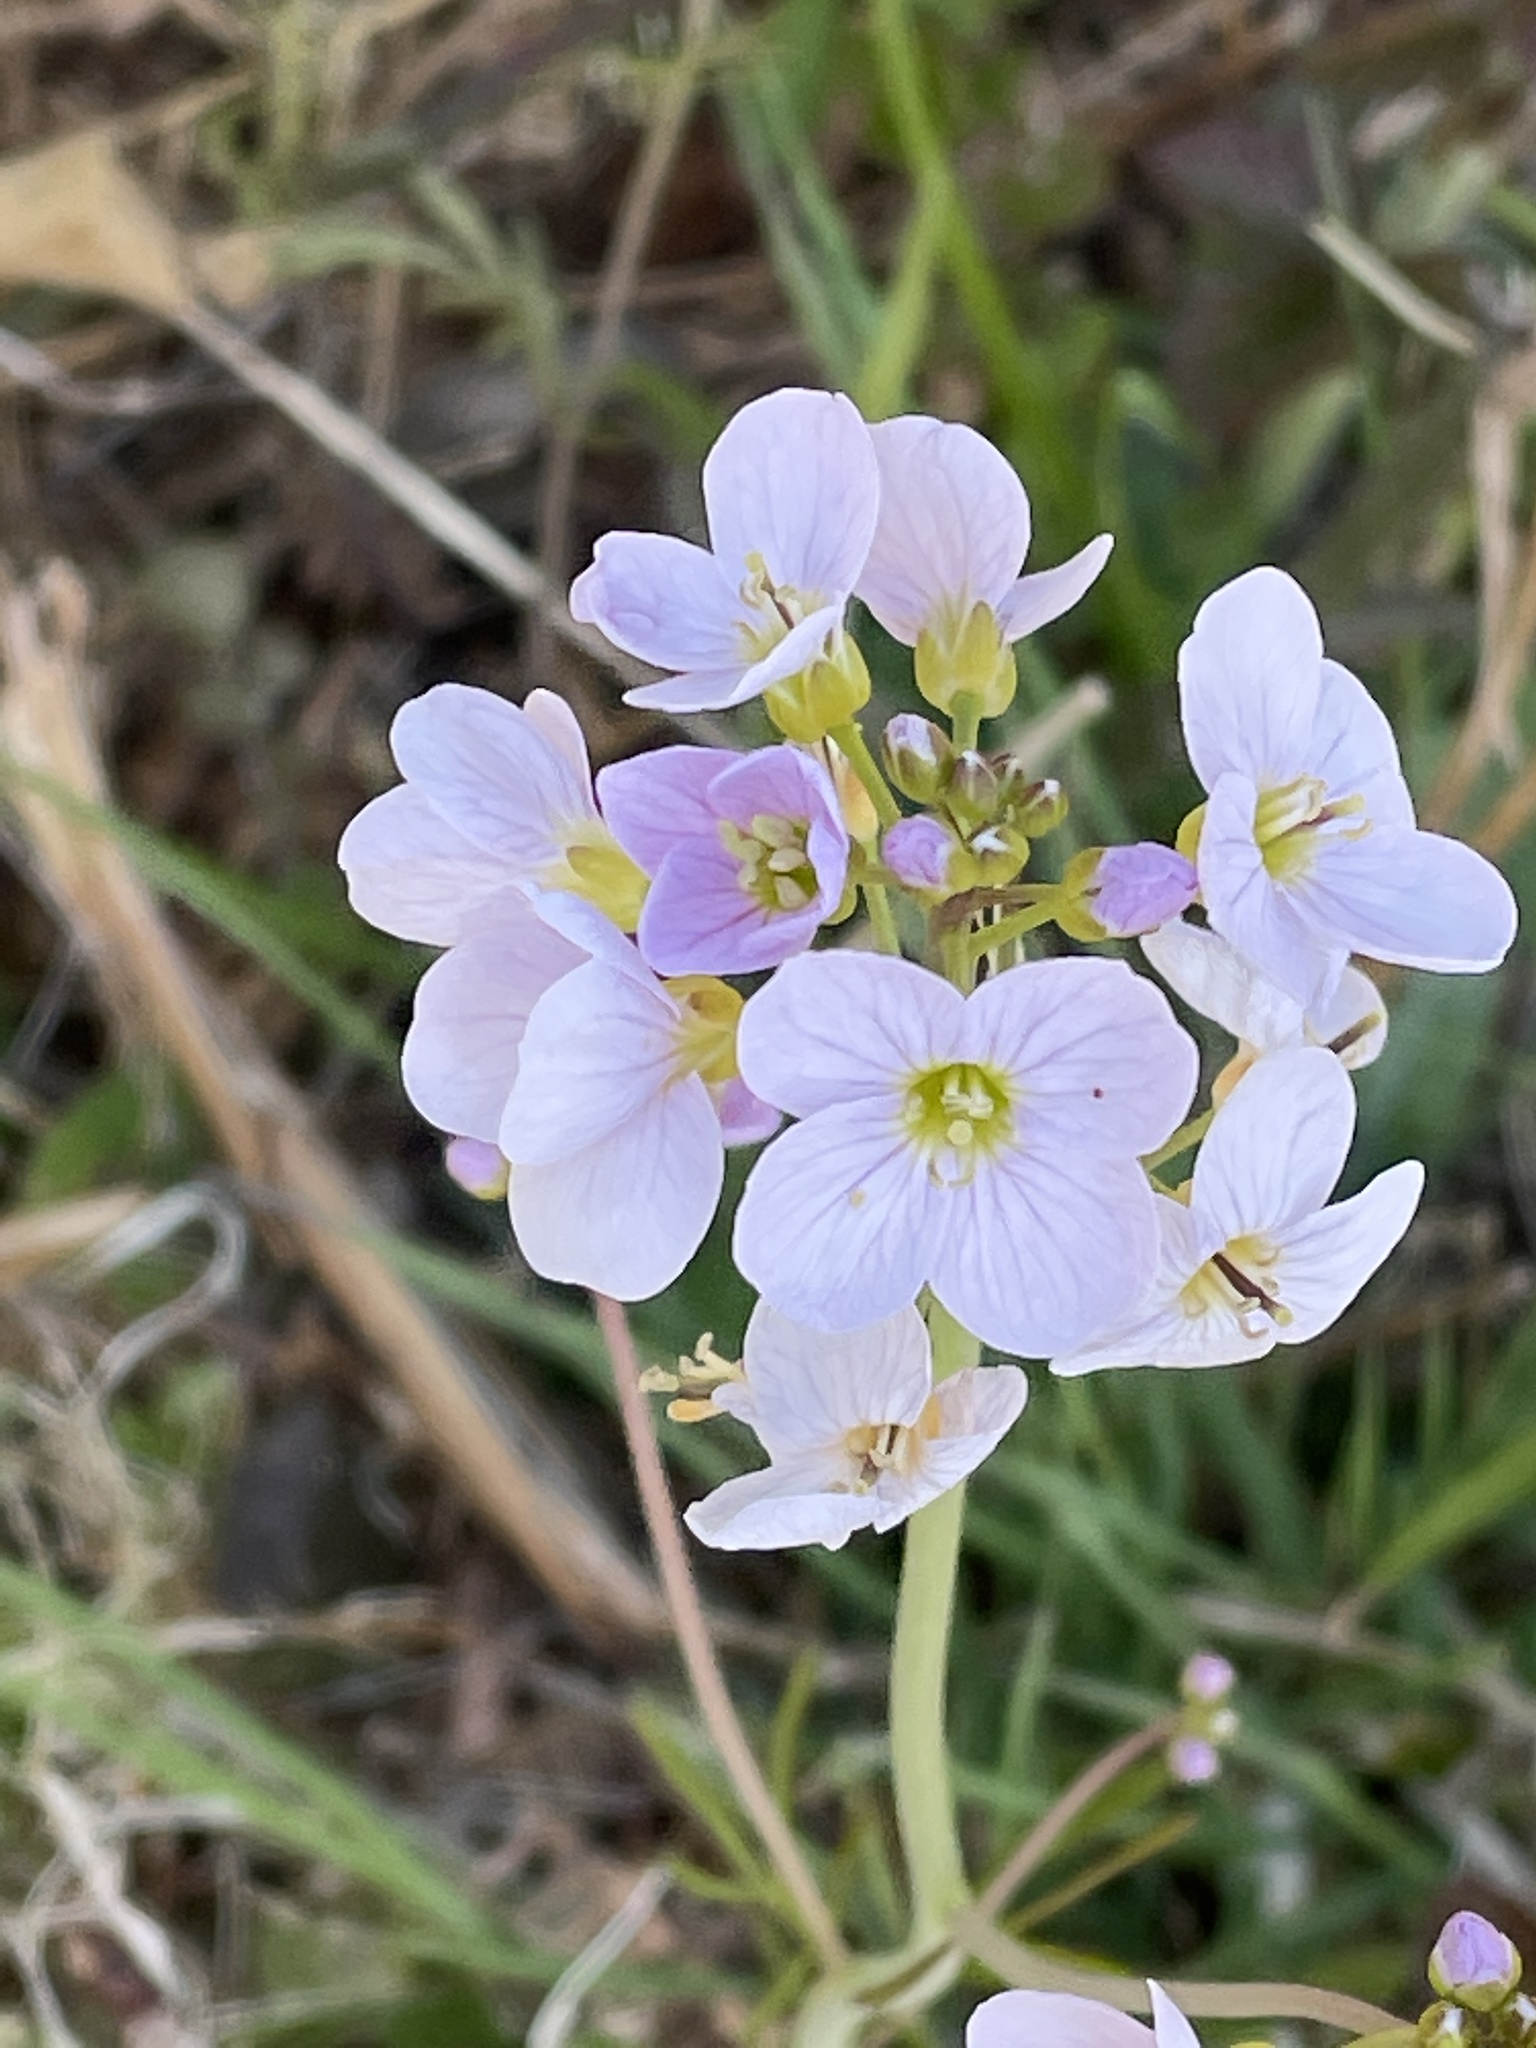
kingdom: Plantae
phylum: Tracheophyta
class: Magnoliopsida
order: Brassicales
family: Brassicaceae
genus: Cardamine
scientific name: Cardamine pratensis
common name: Cuckoo flower
